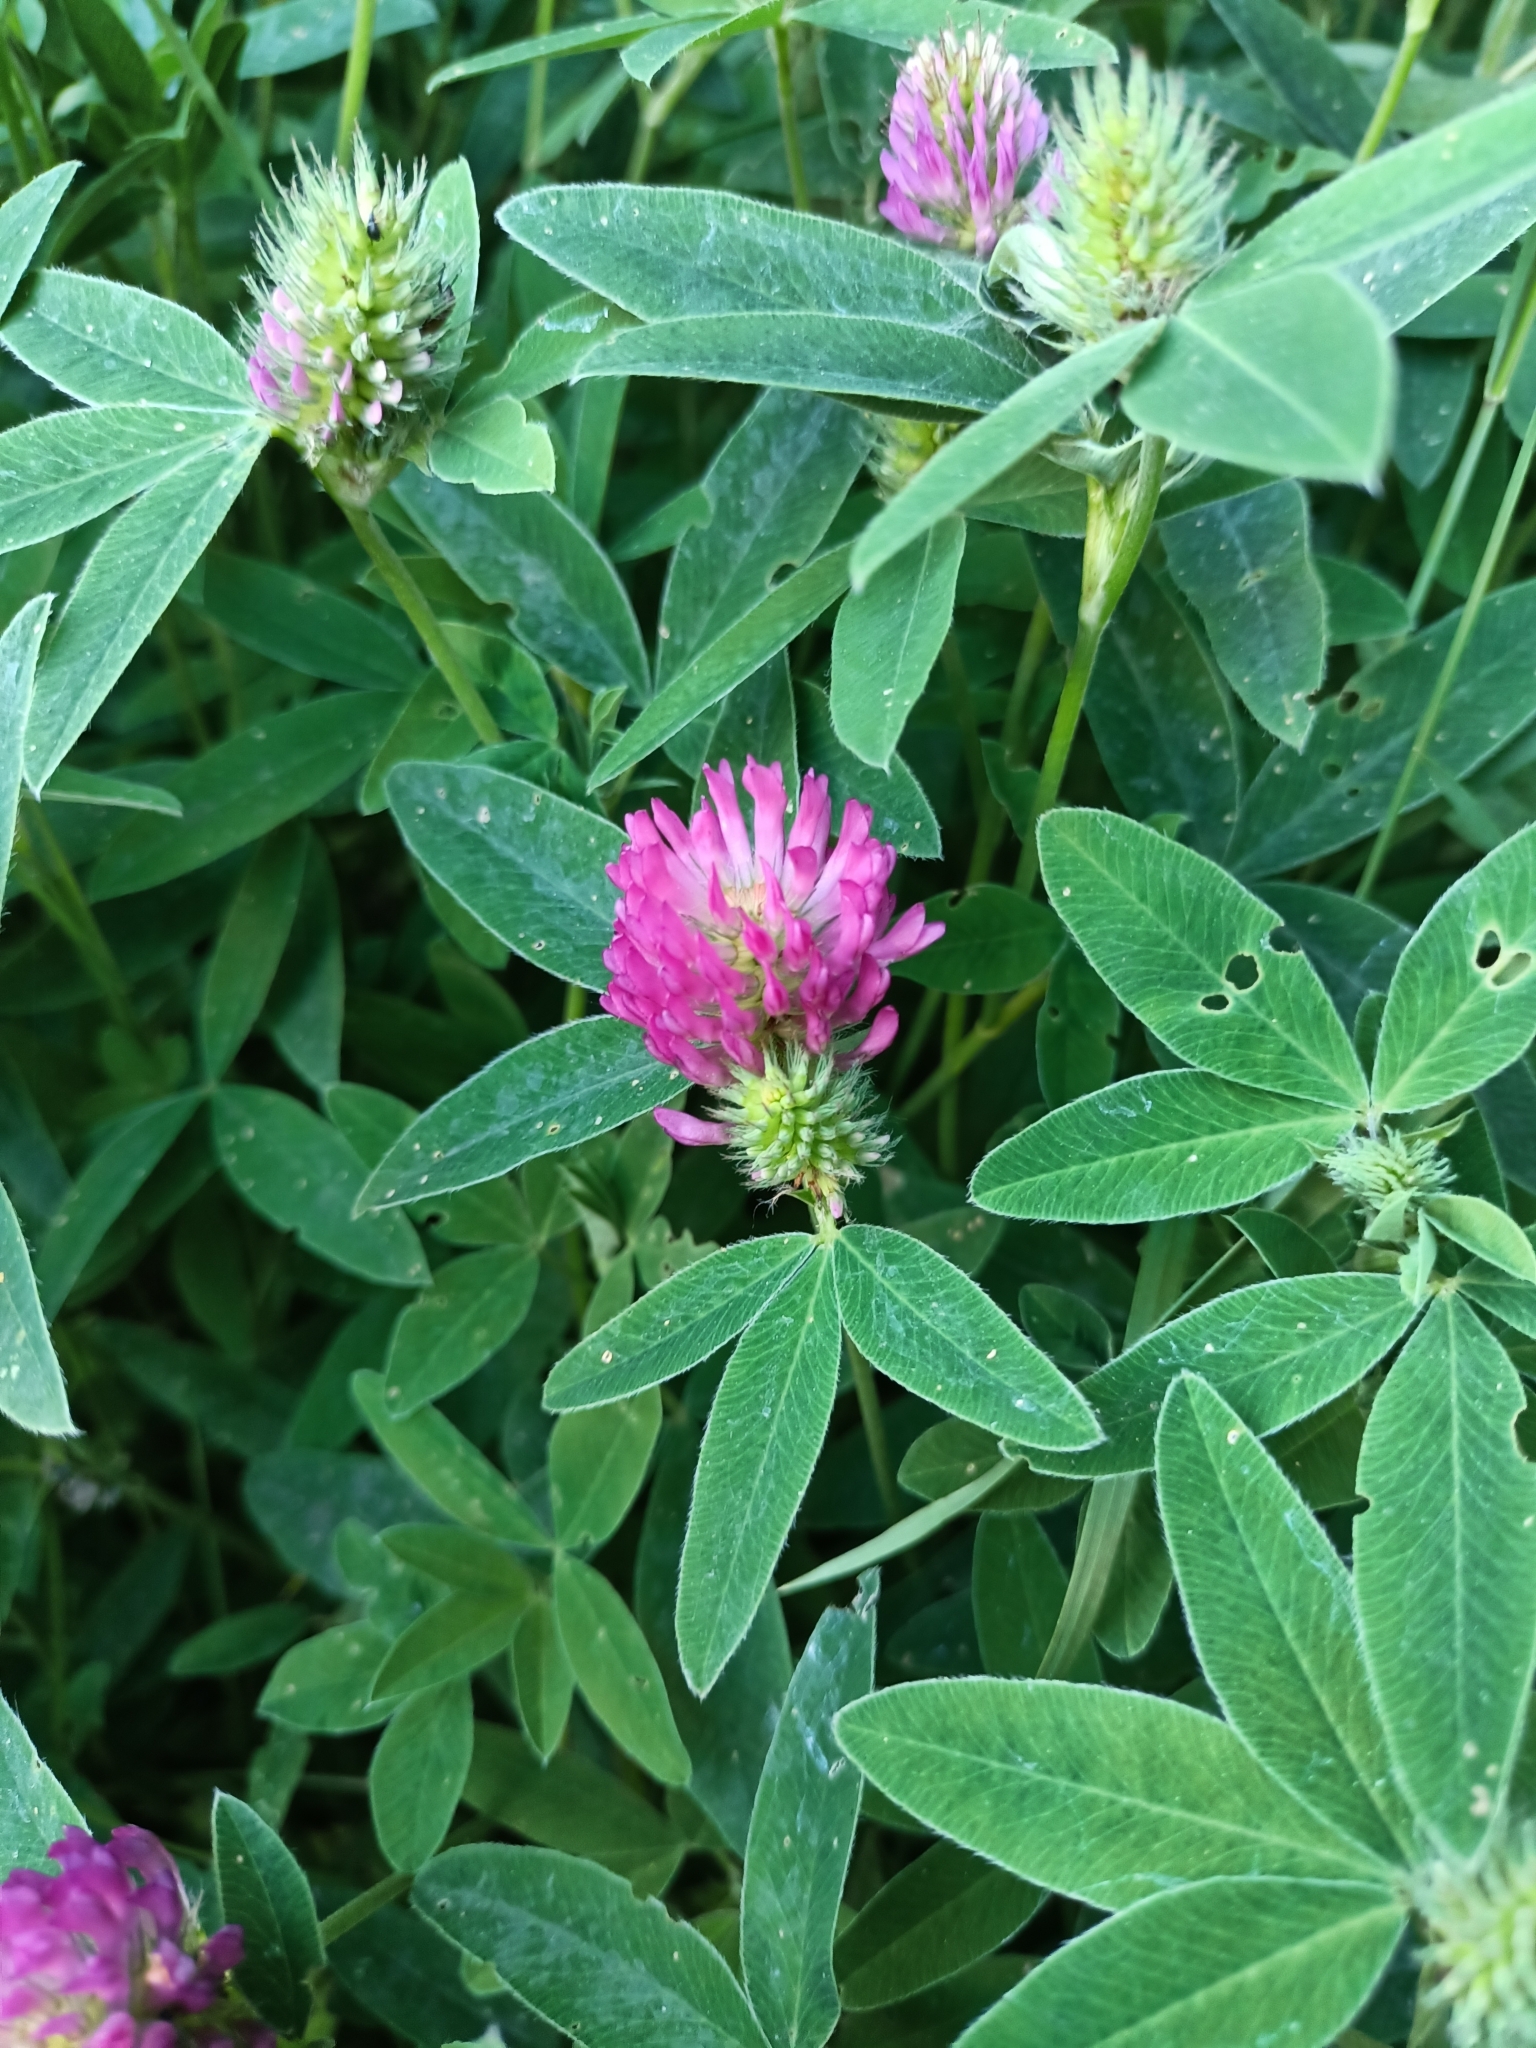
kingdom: Plantae
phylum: Tracheophyta
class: Magnoliopsida
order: Fabales
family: Fabaceae
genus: Trifolium
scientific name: Trifolium medium
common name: Zigzag clover
